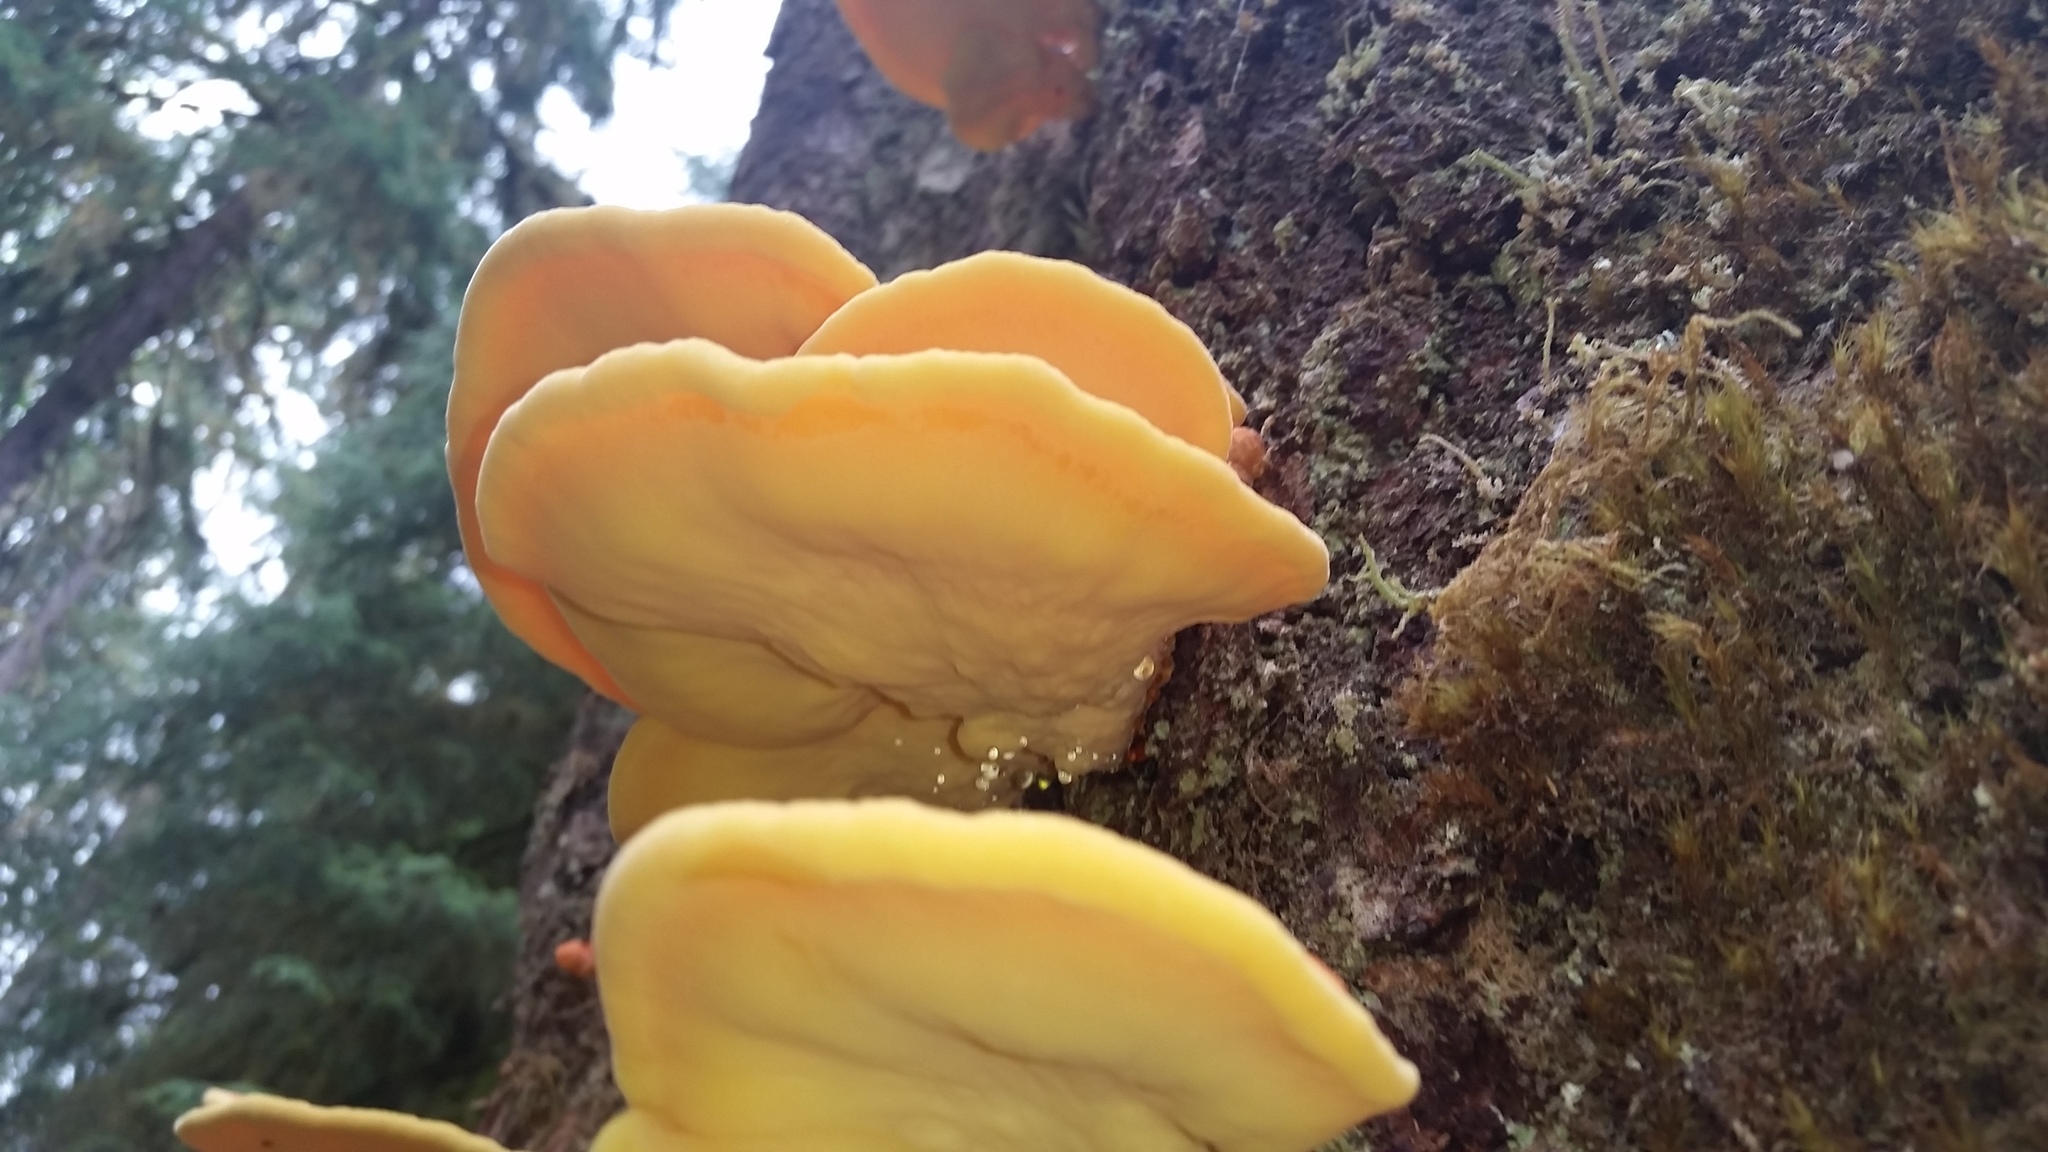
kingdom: Fungi
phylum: Basidiomycota
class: Agaricomycetes
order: Polyporales
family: Laetiporaceae
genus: Laetiporus
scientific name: Laetiporus conifericola
